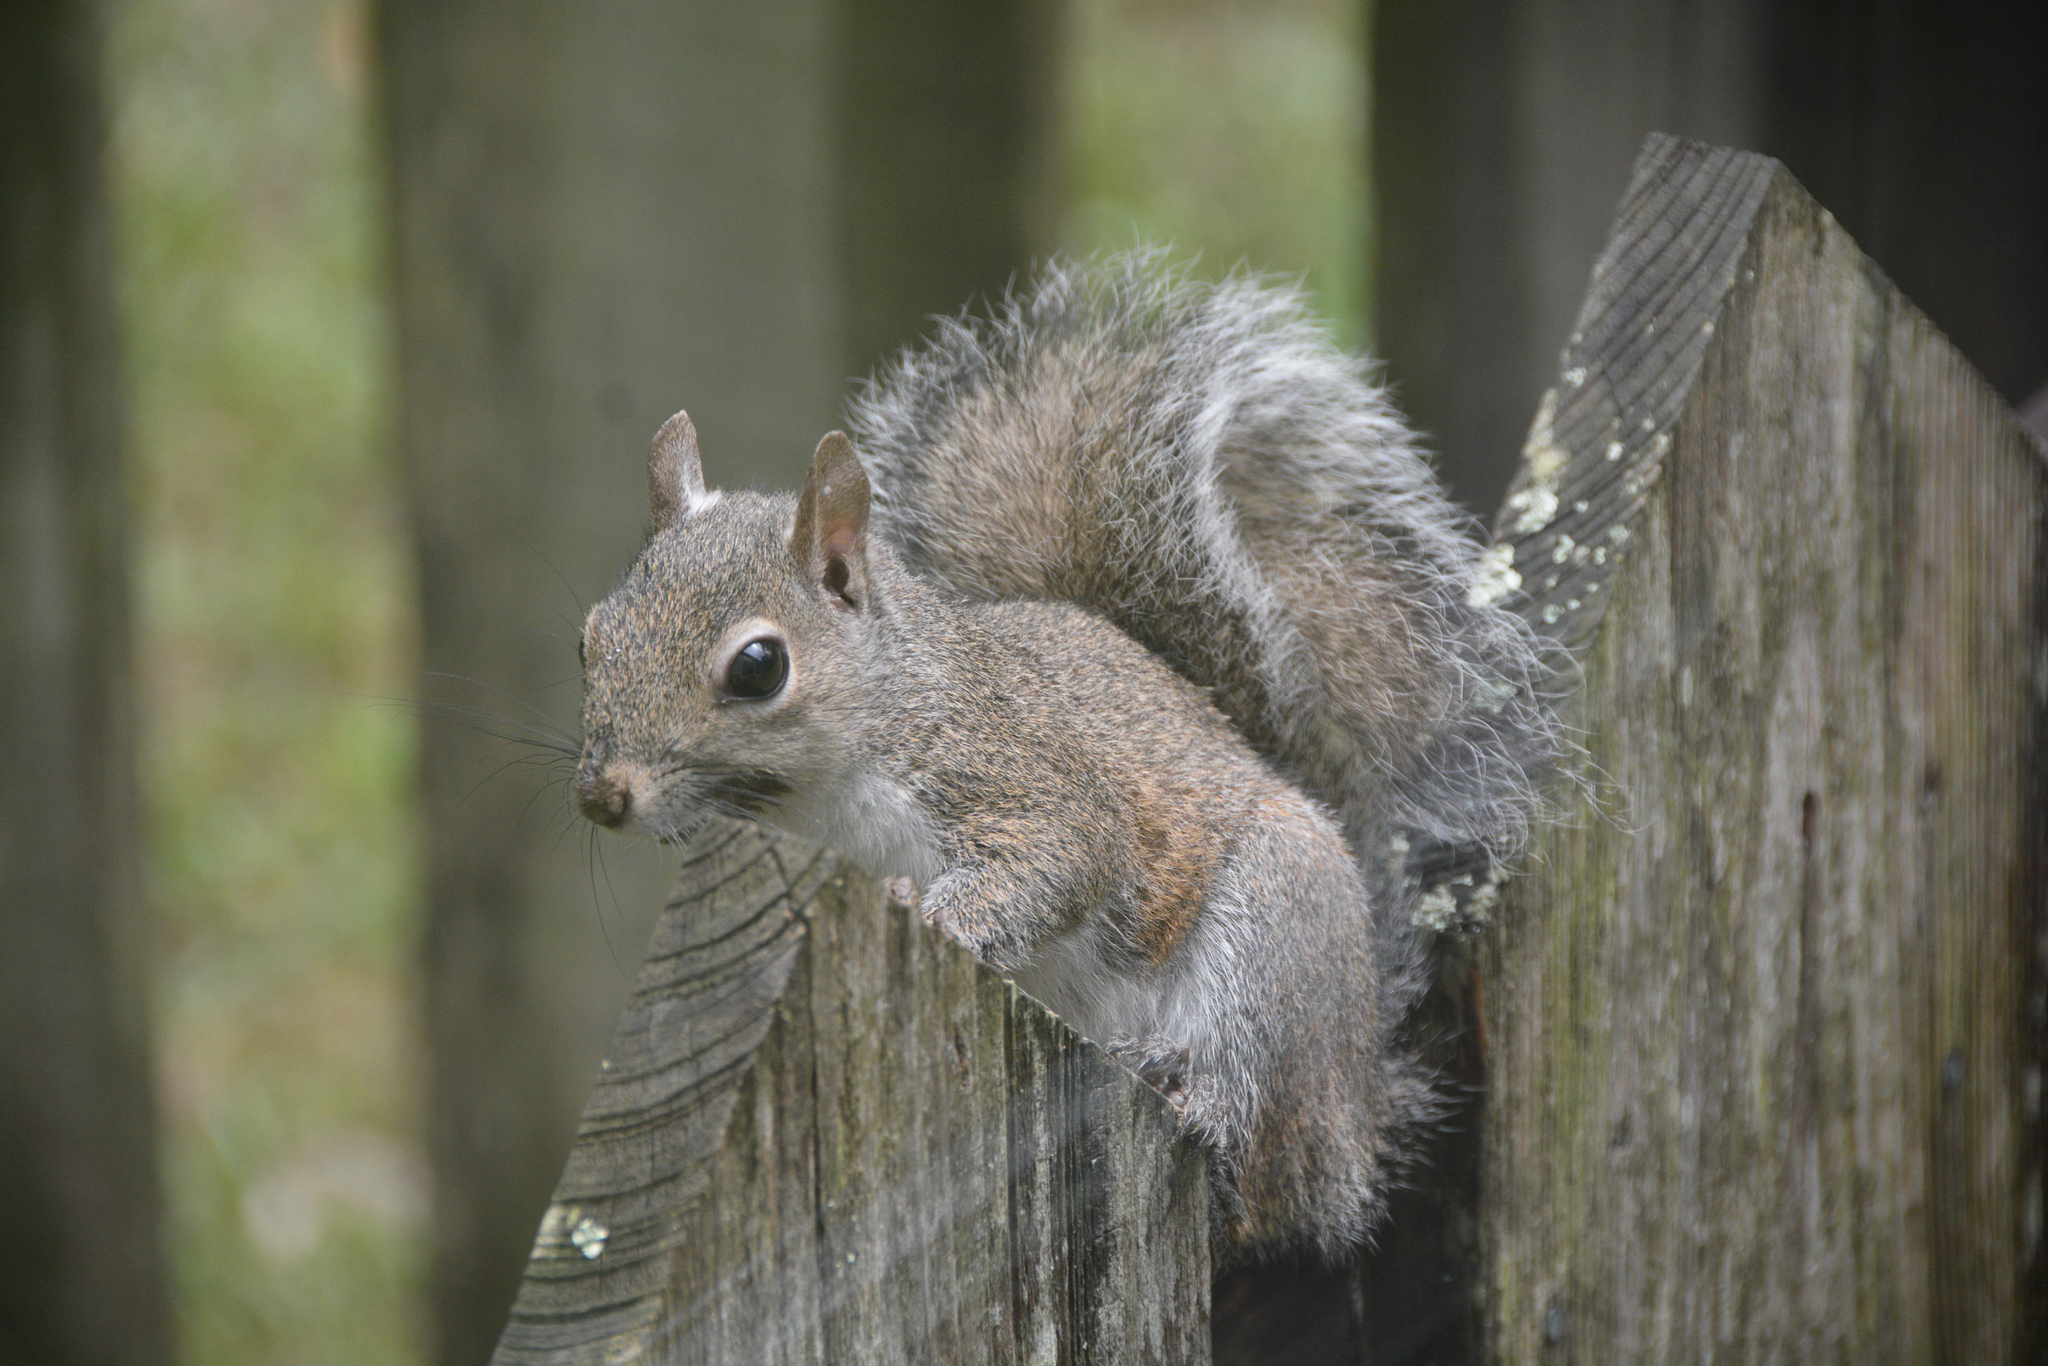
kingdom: Animalia
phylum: Chordata
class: Mammalia
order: Rodentia
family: Sciuridae
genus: Sciurus
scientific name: Sciurus carolinensis
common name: Eastern gray squirrel
